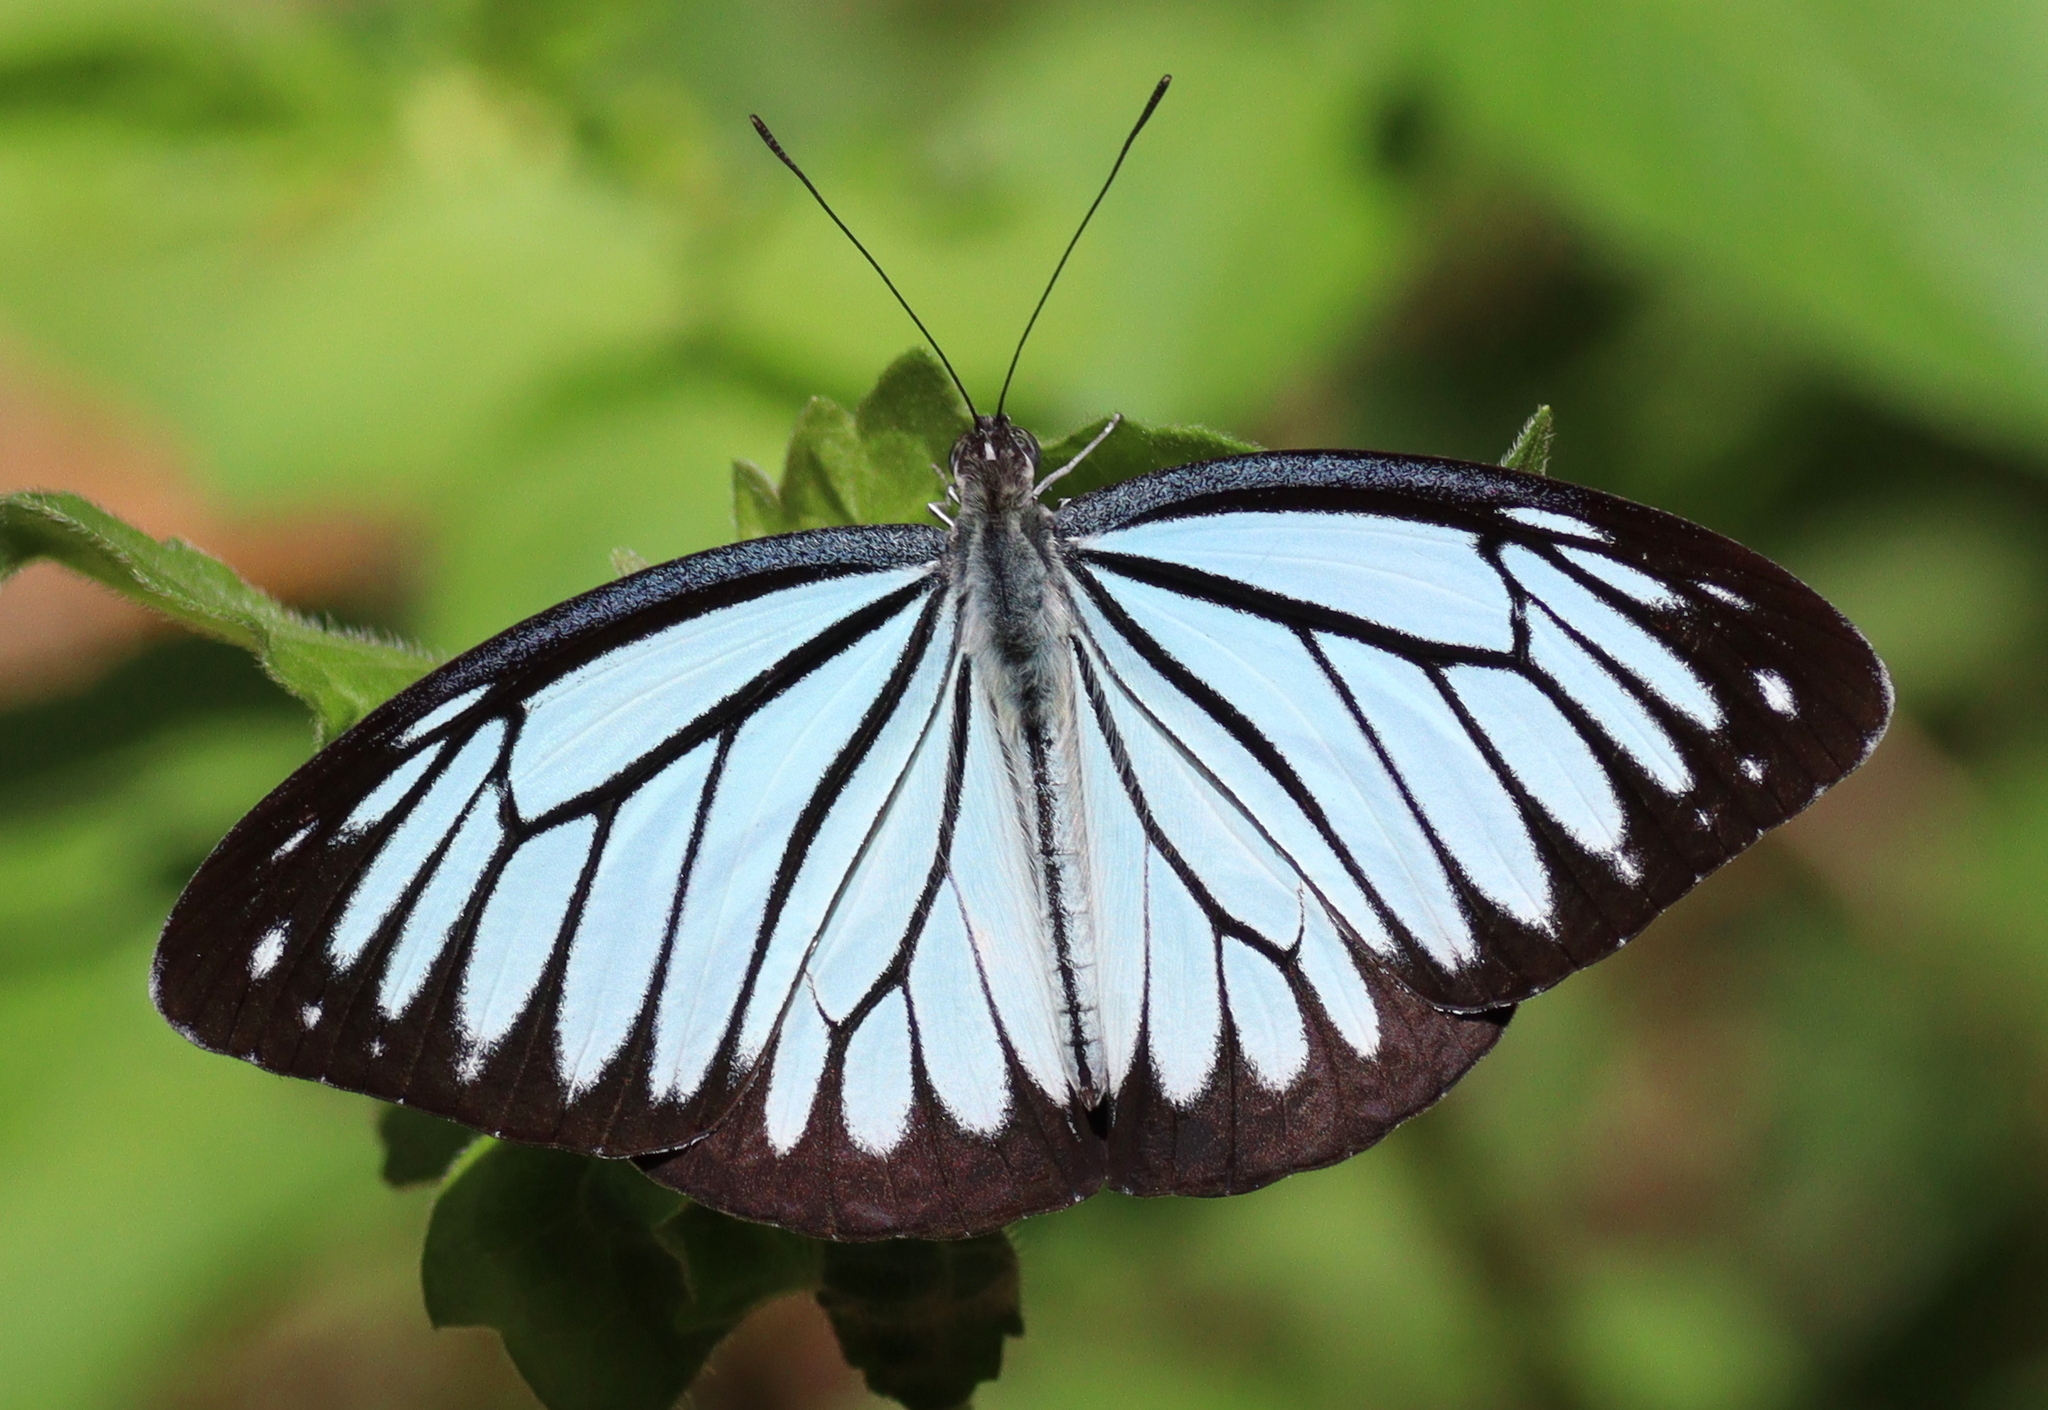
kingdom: Animalia
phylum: Arthropoda
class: Insecta
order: Lepidoptera
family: Pieridae
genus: Pareronia
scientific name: Pareronia hippia
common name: Indian wanderer
